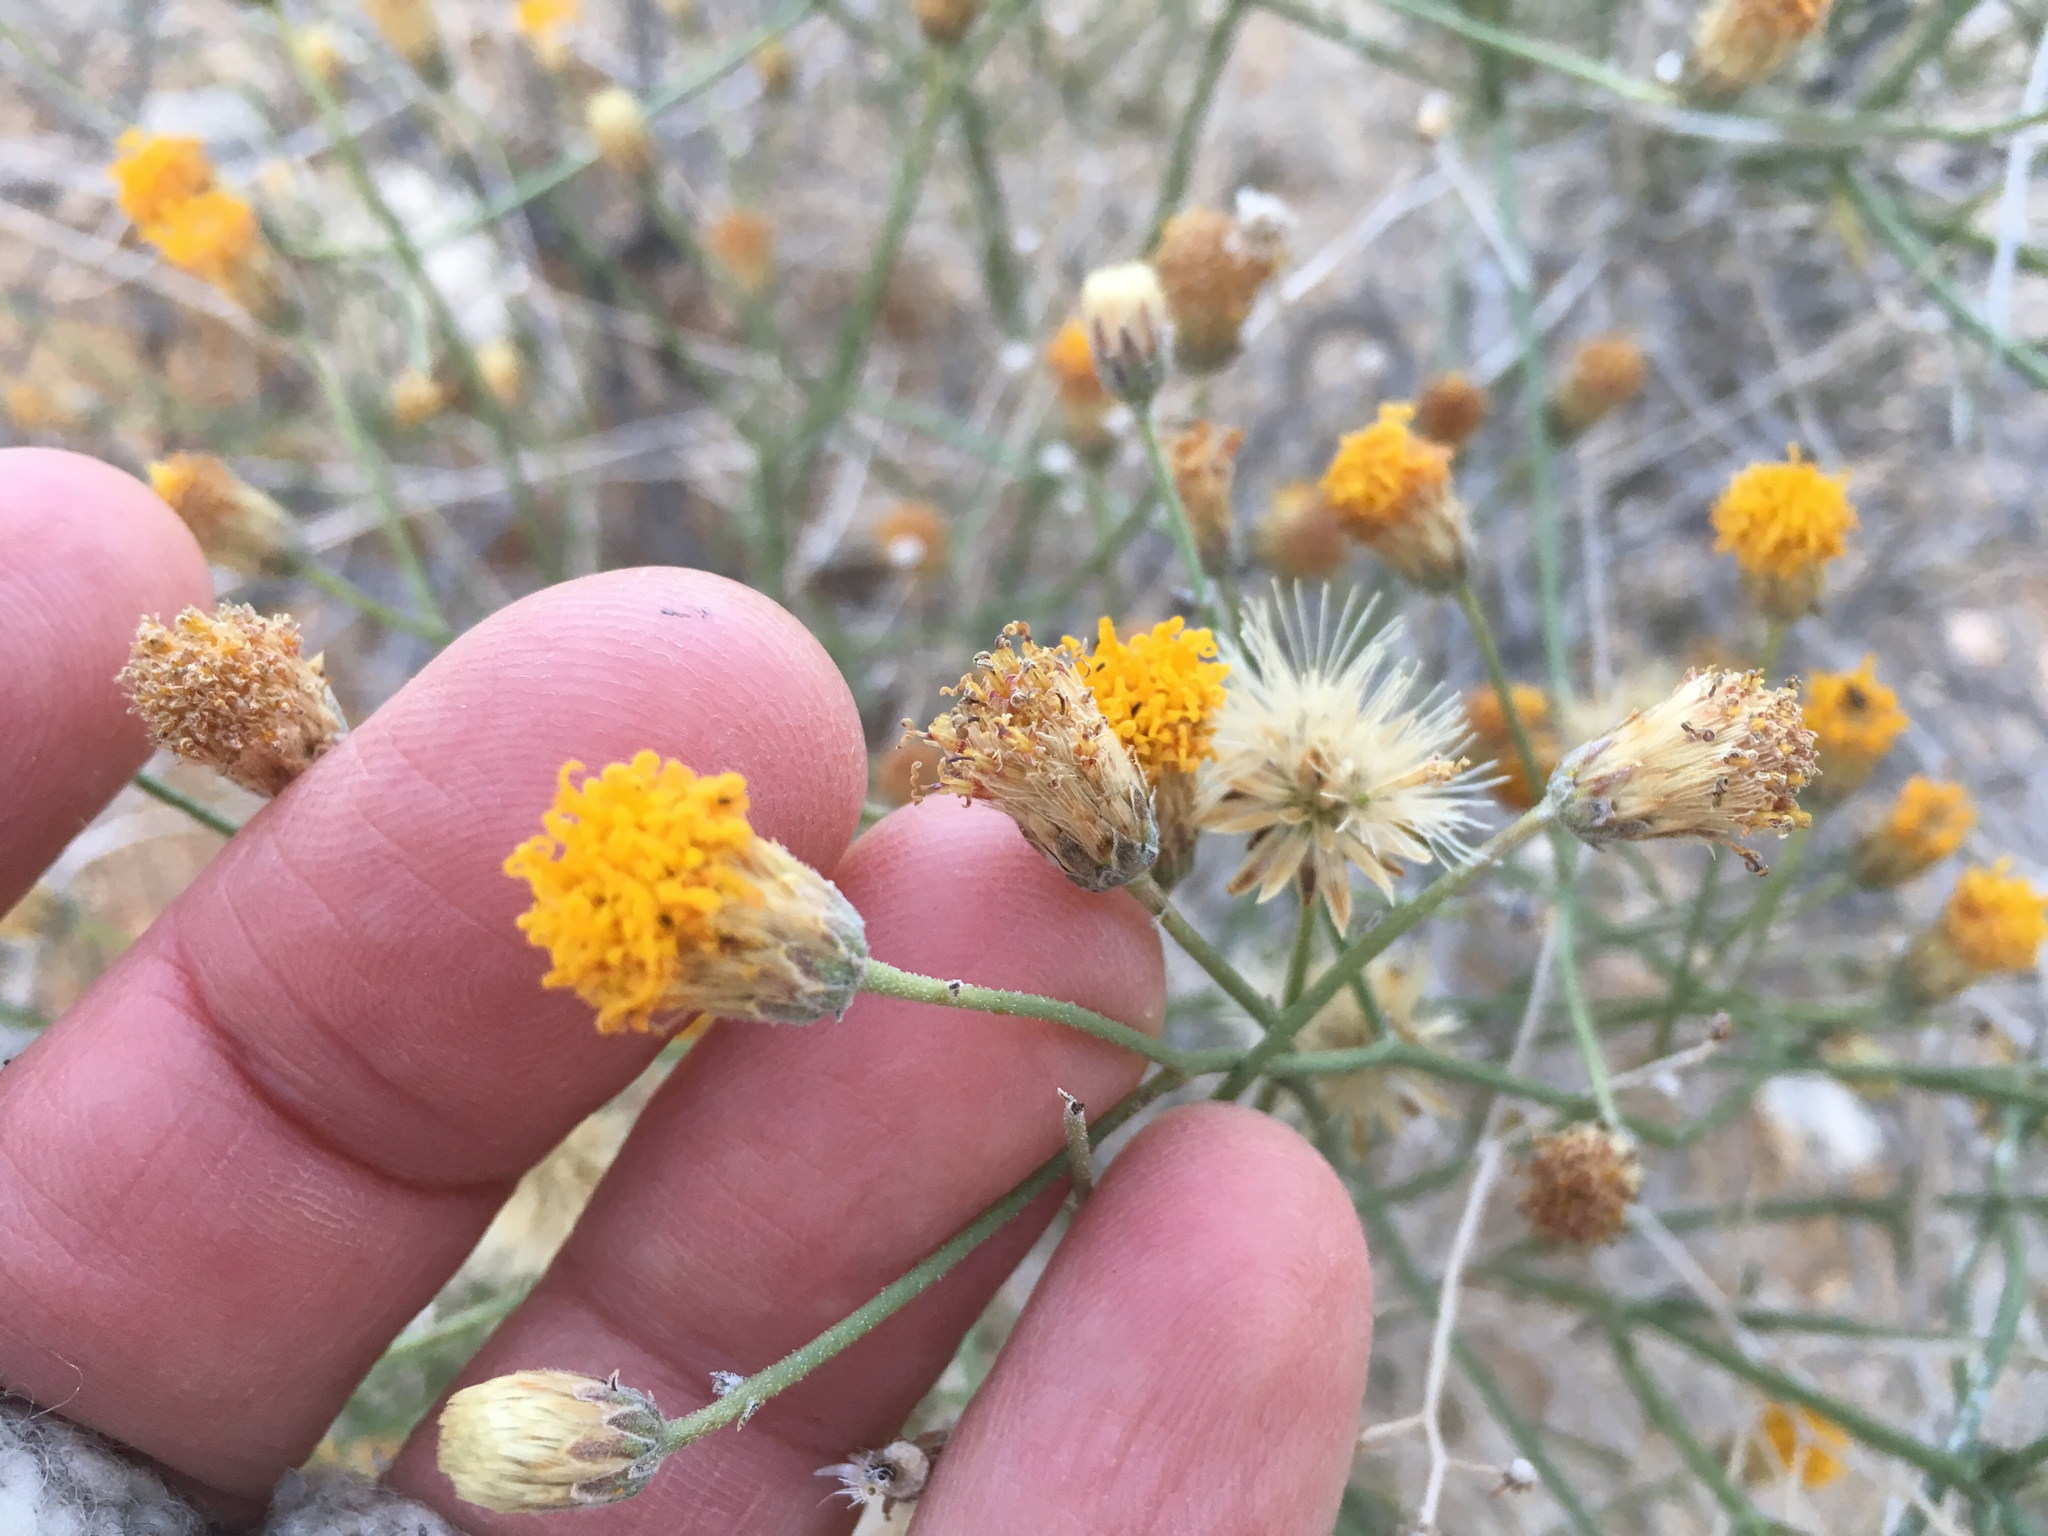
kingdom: Plantae
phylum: Tracheophyta
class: Magnoliopsida
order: Asterales
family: Asteraceae
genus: Bebbia
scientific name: Bebbia juncea
